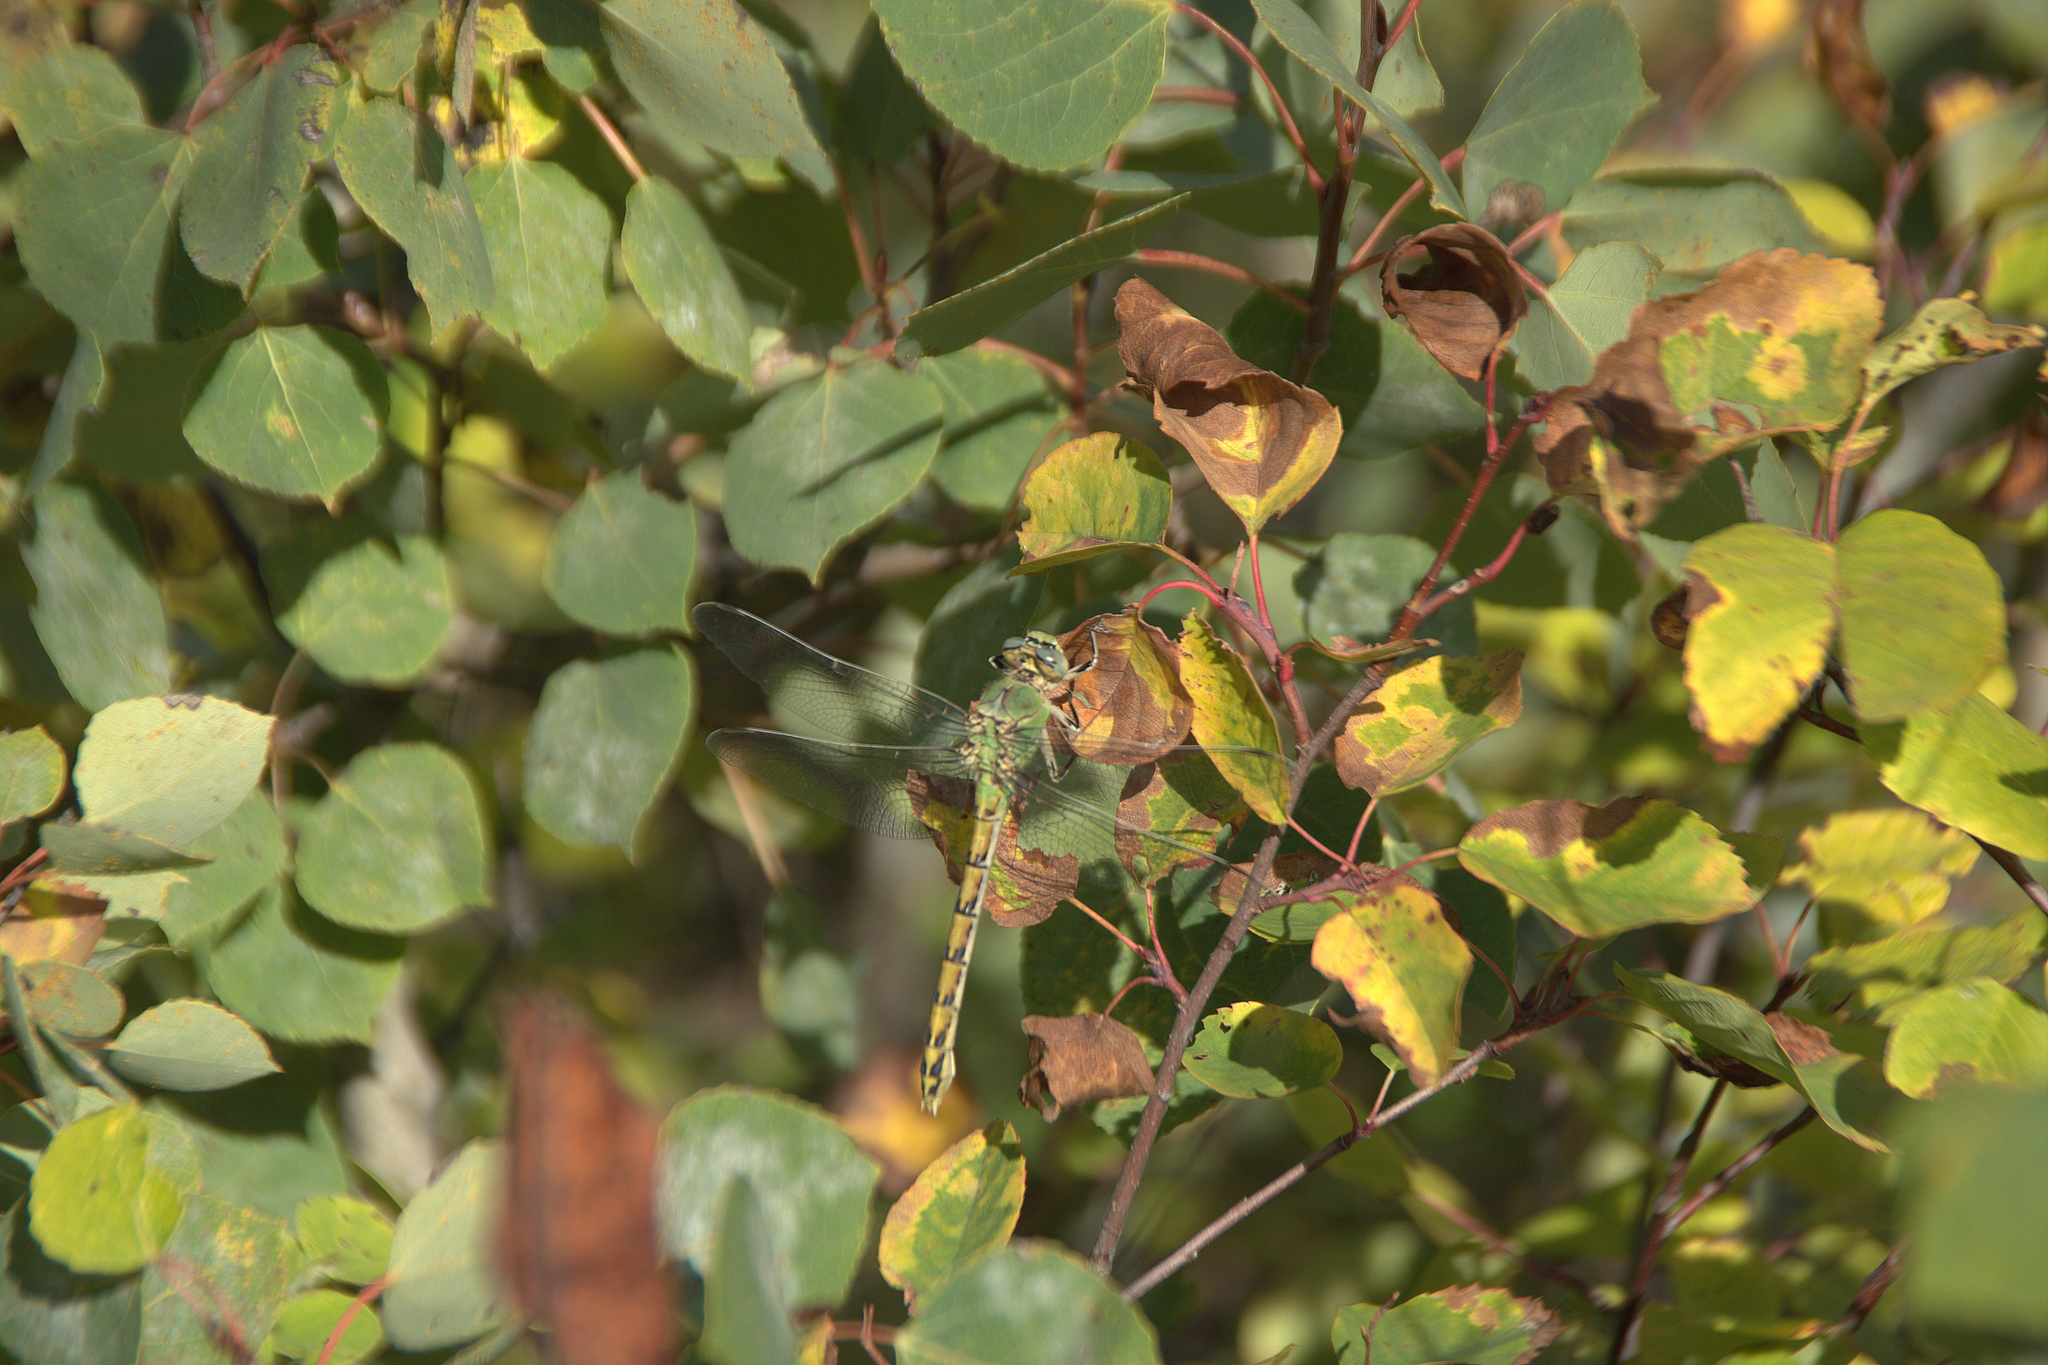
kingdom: Animalia
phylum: Arthropoda
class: Insecta
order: Odonata
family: Gomphidae
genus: Ophiogomphus
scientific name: Ophiogomphus severus
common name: Pale snaketail
